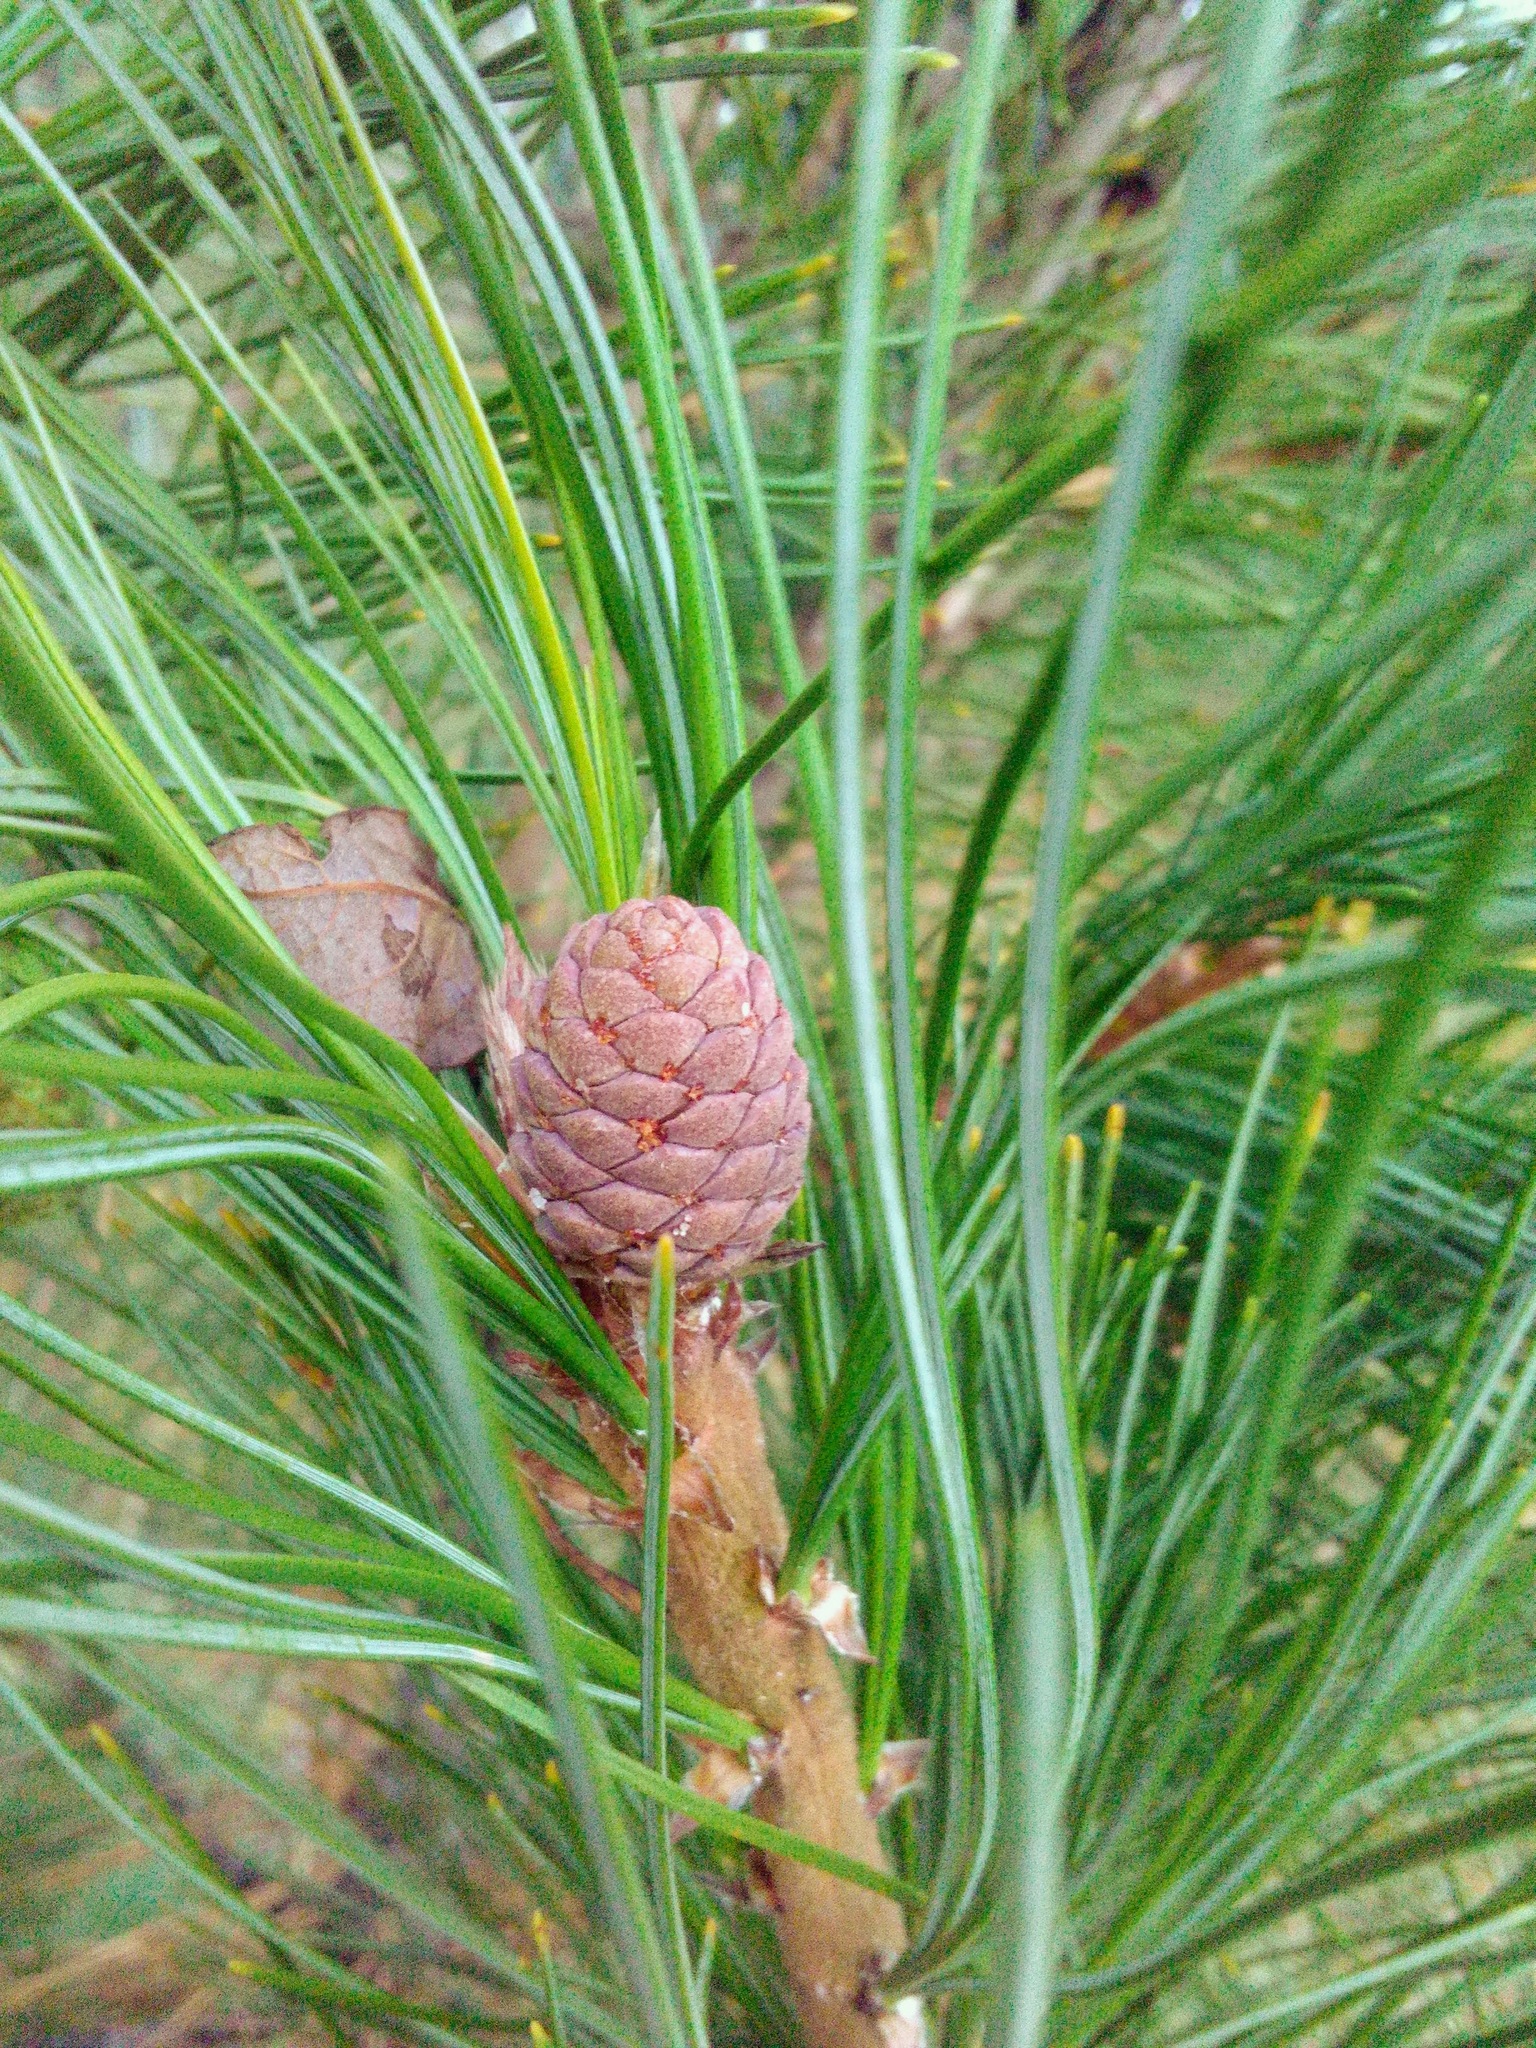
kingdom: Plantae
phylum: Tracheophyta
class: Pinopsida
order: Pinales
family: Pinaceae
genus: Pinus
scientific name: Pinus sibirica
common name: Siberian pine
